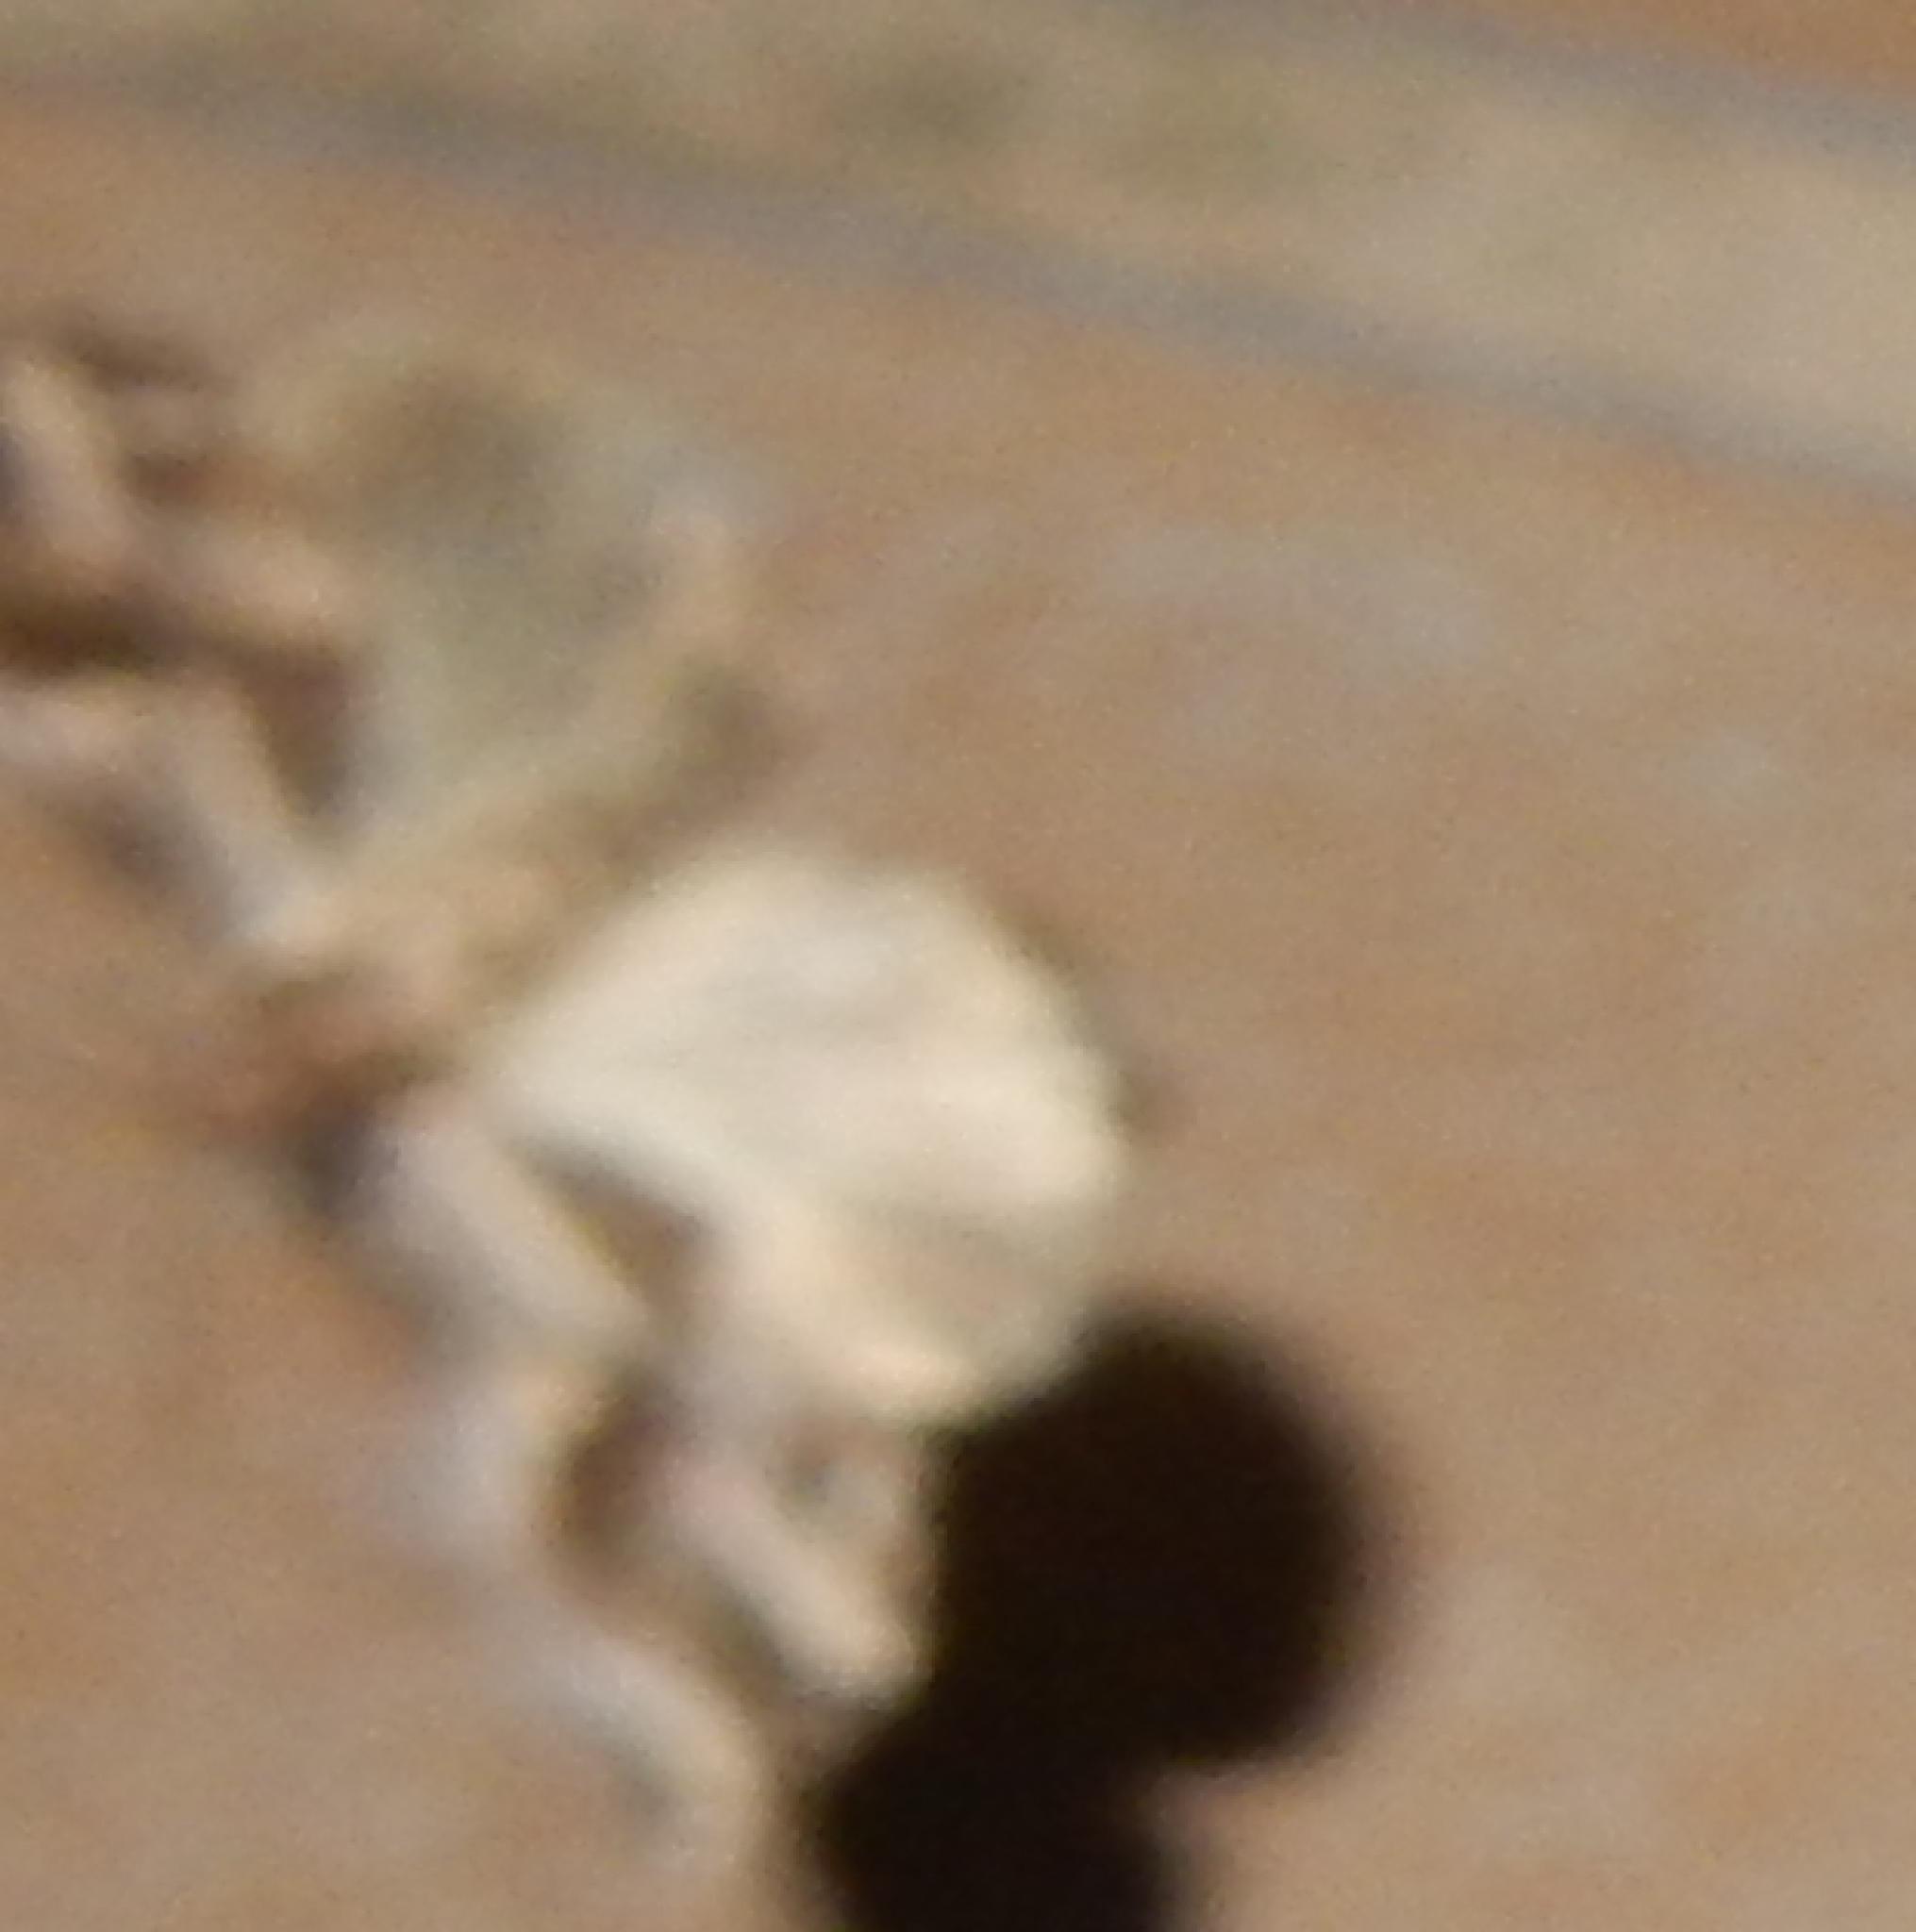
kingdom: Animalia
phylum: Arthropoda
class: Insecta
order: Lepidoptera
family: Noctuidae
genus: Anedhella
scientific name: Anedhella interrupta
